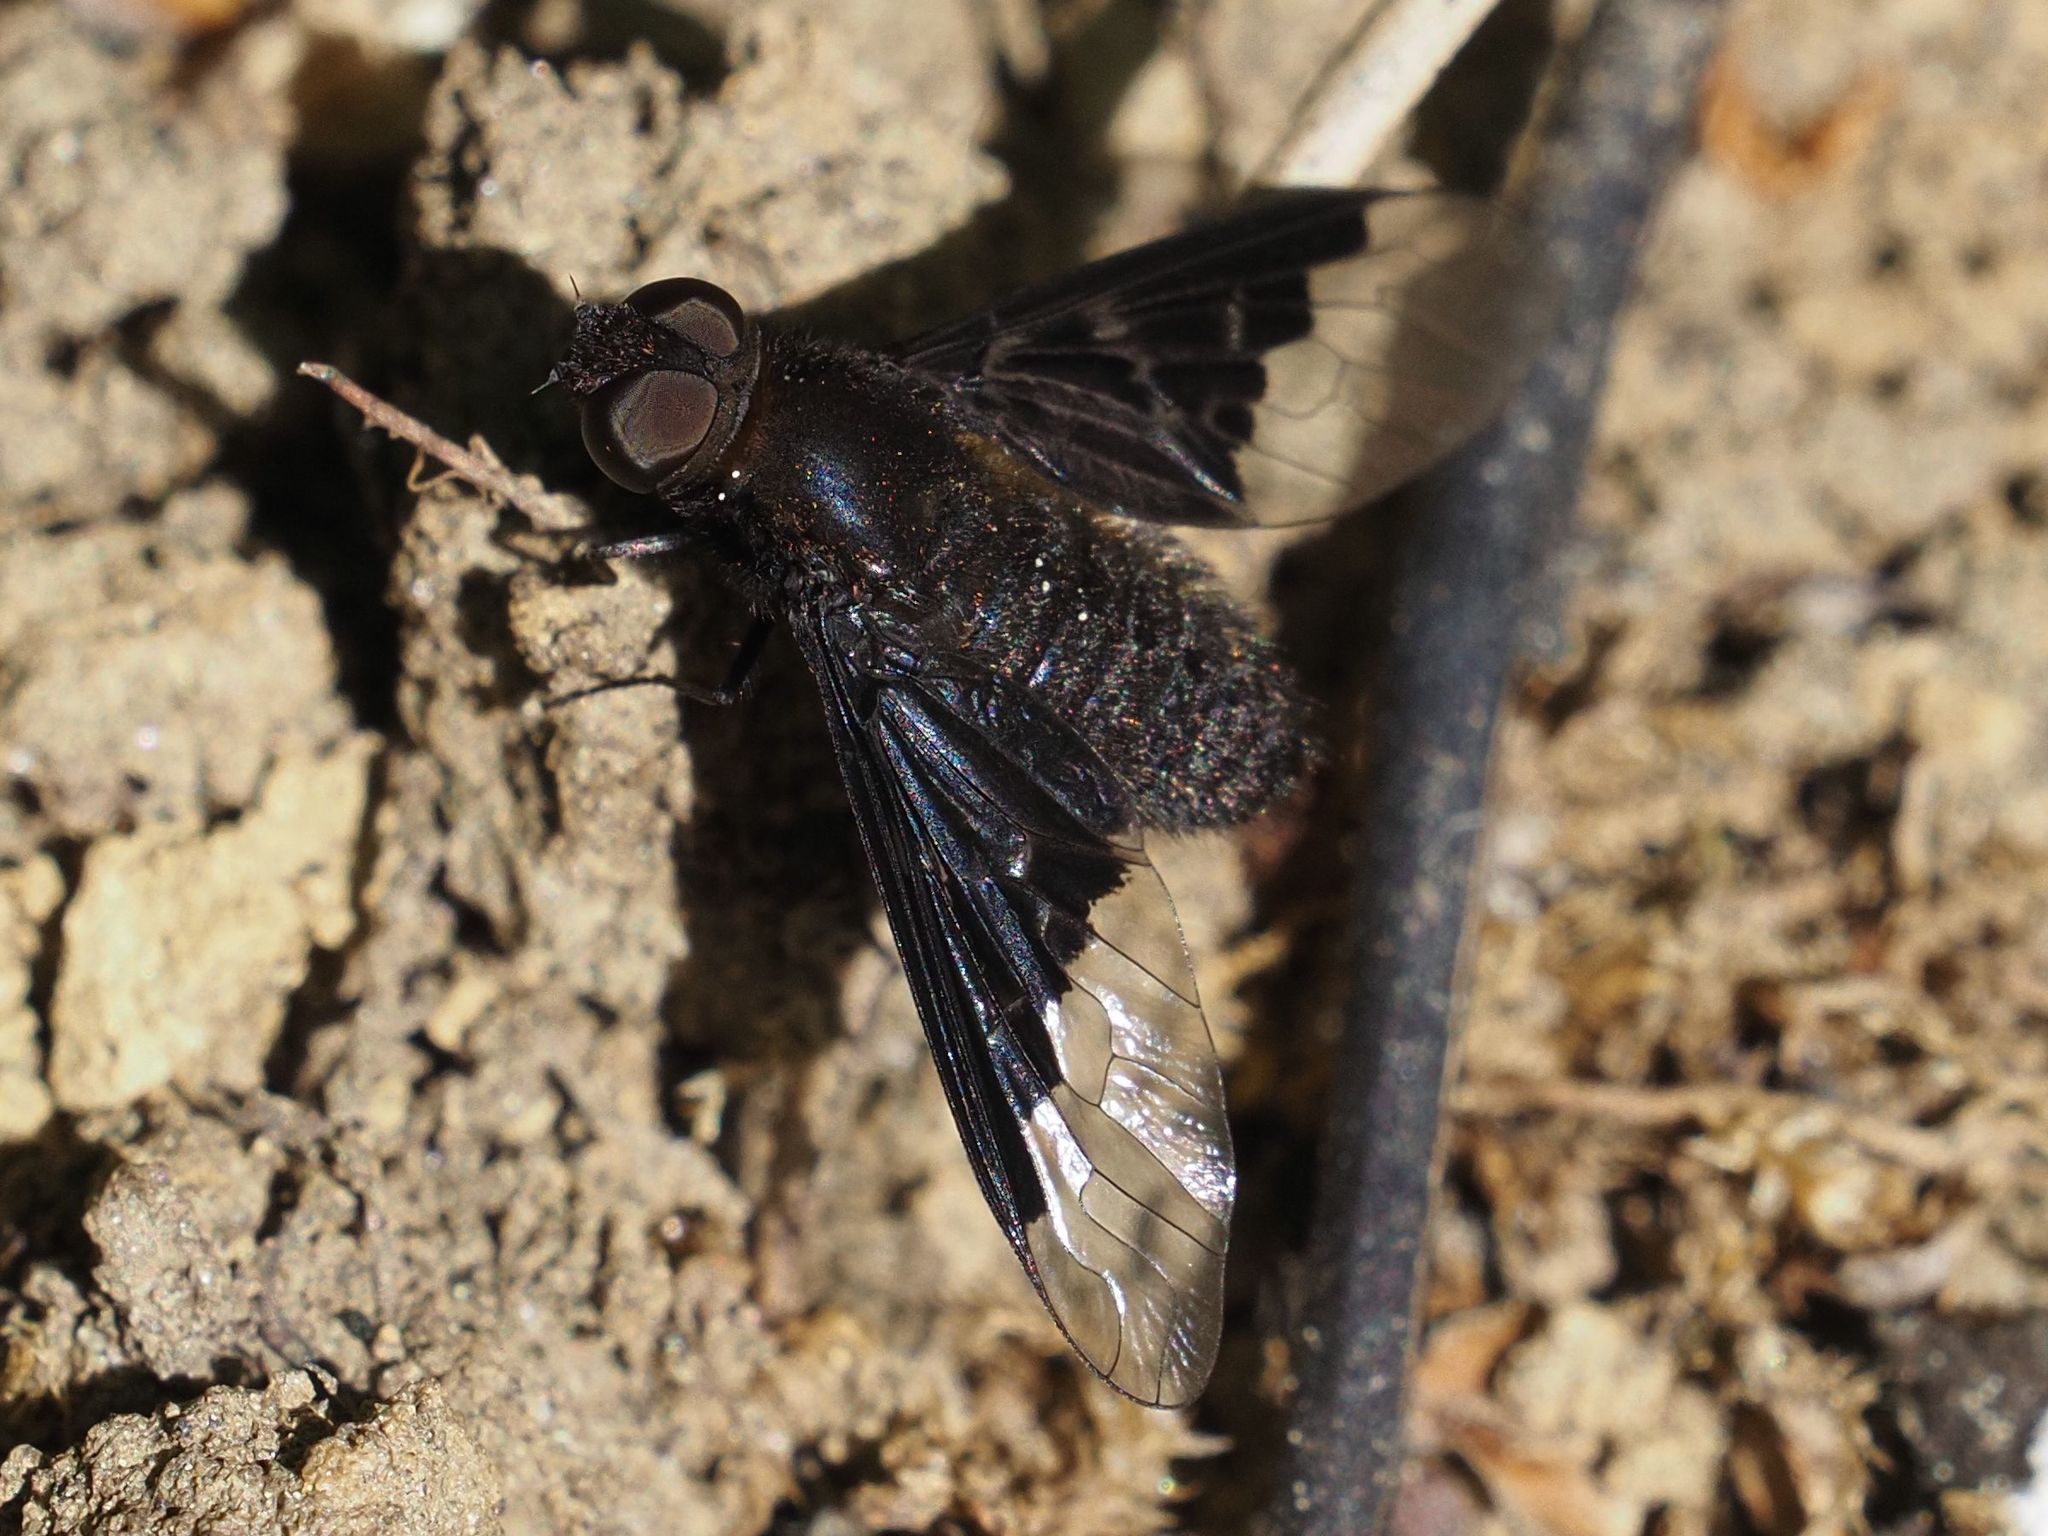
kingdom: Animalia
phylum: Arthropoda
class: Insecta
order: Diptera
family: Bombyliidae
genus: Hemipenthes
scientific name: Hemipenthes morio
